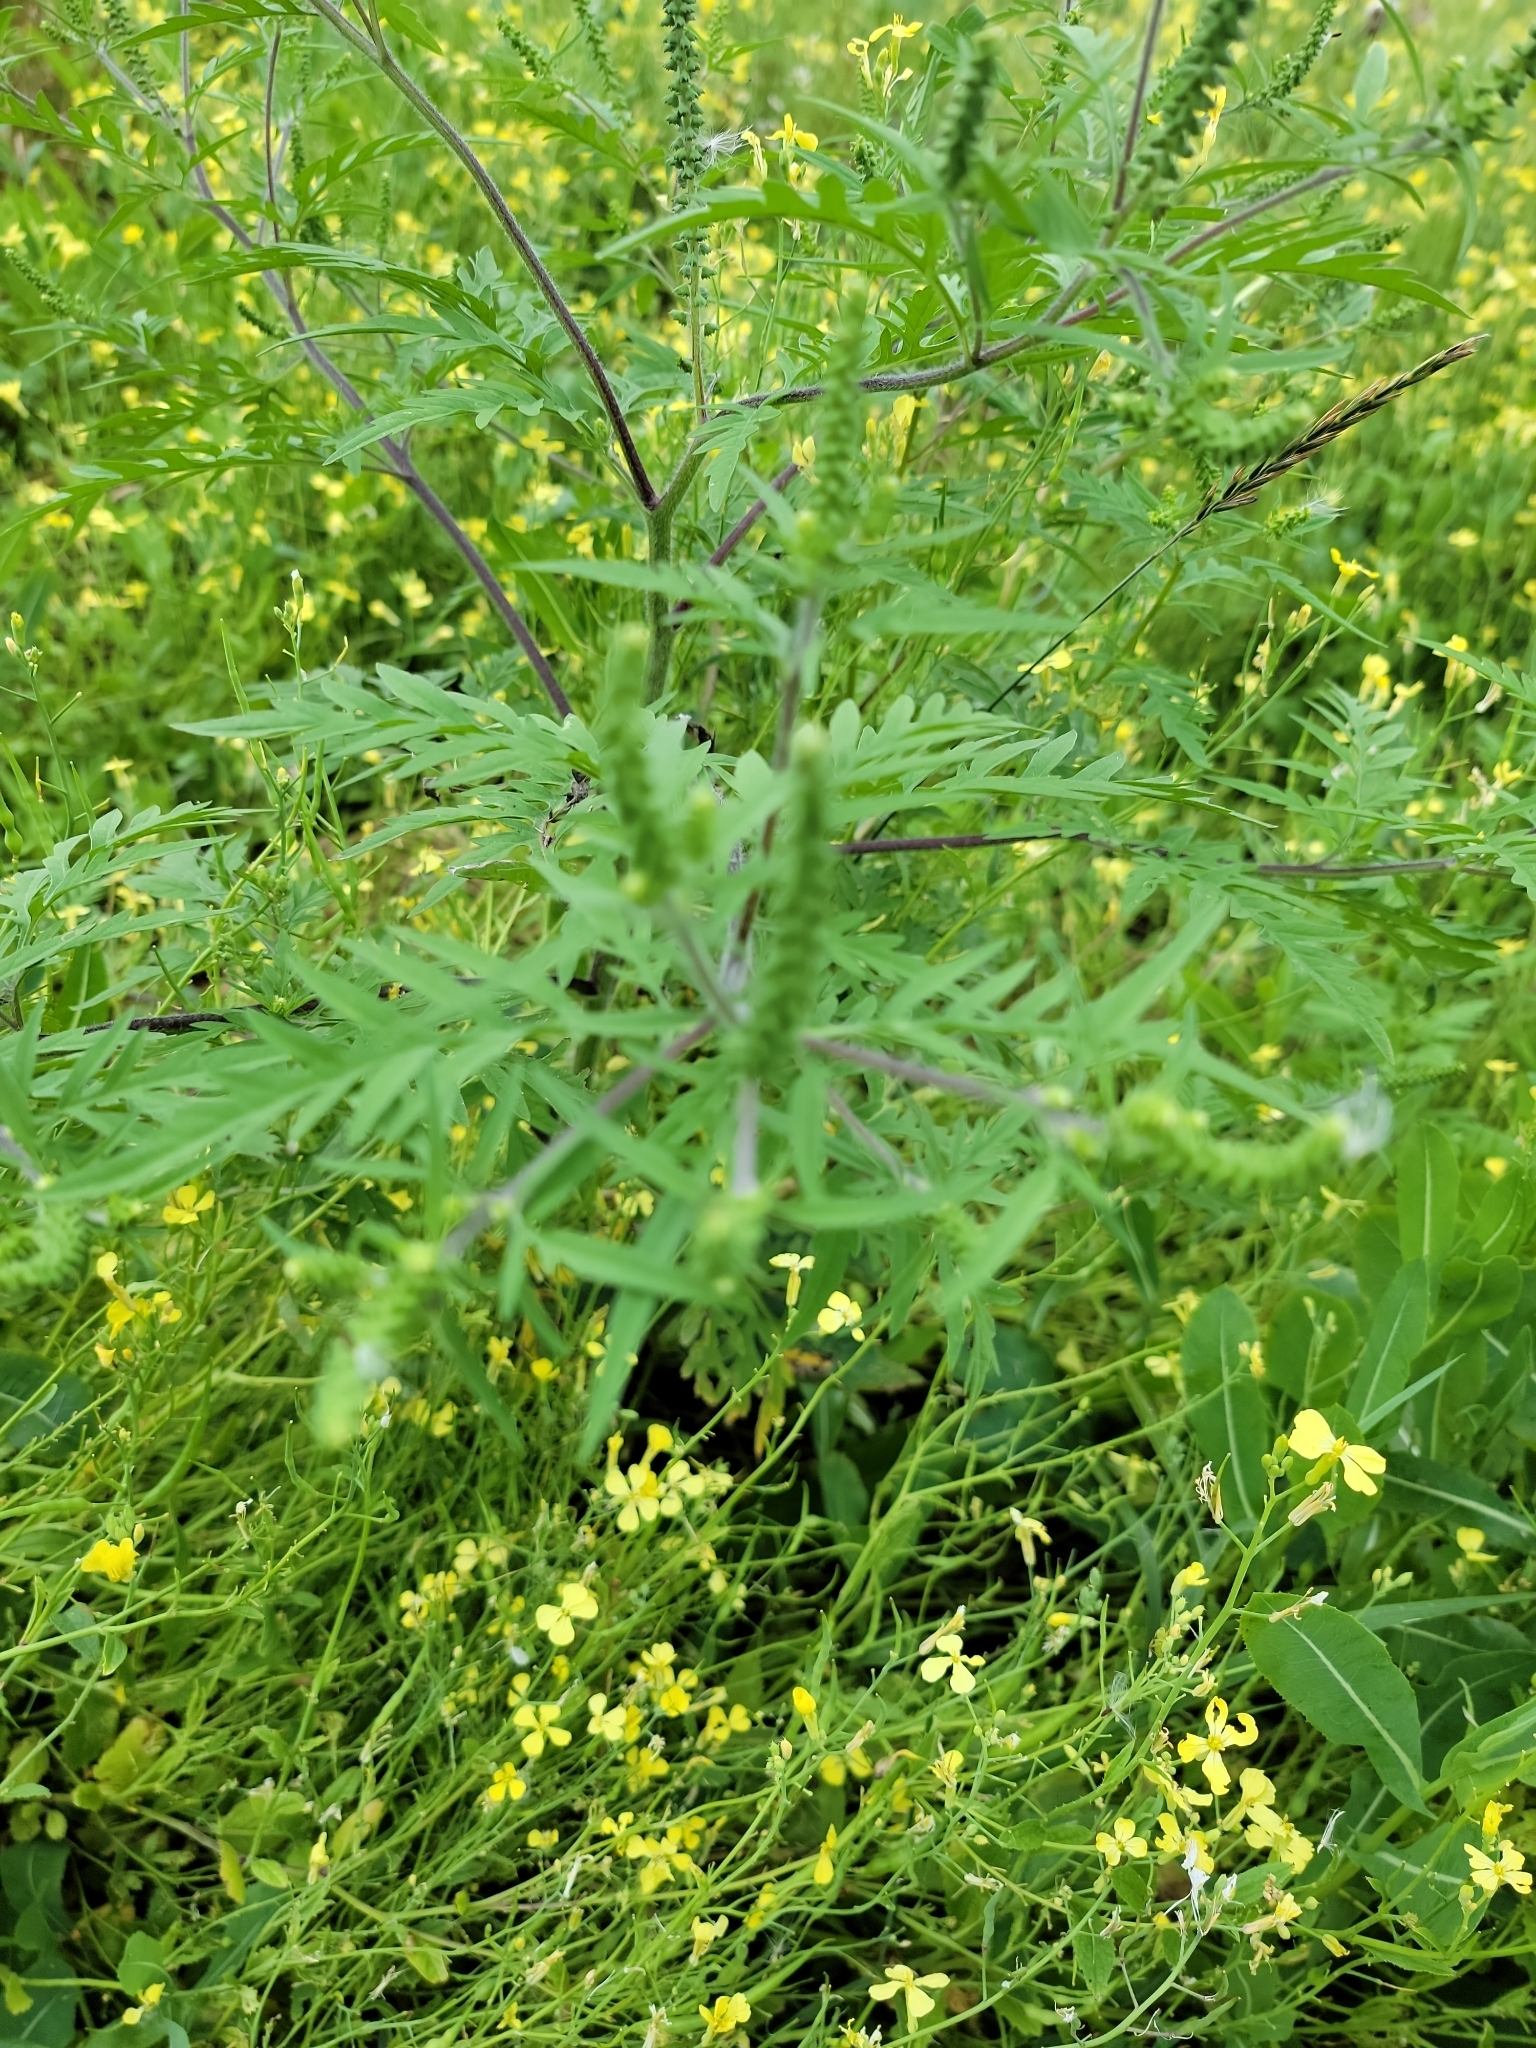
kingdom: Plantae
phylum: Tracheophyta
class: Magnoliopsida
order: Asterales
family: Asteraceae
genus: Ambrosia
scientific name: Ambrosia artemisiifolia
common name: Annual ragweed
